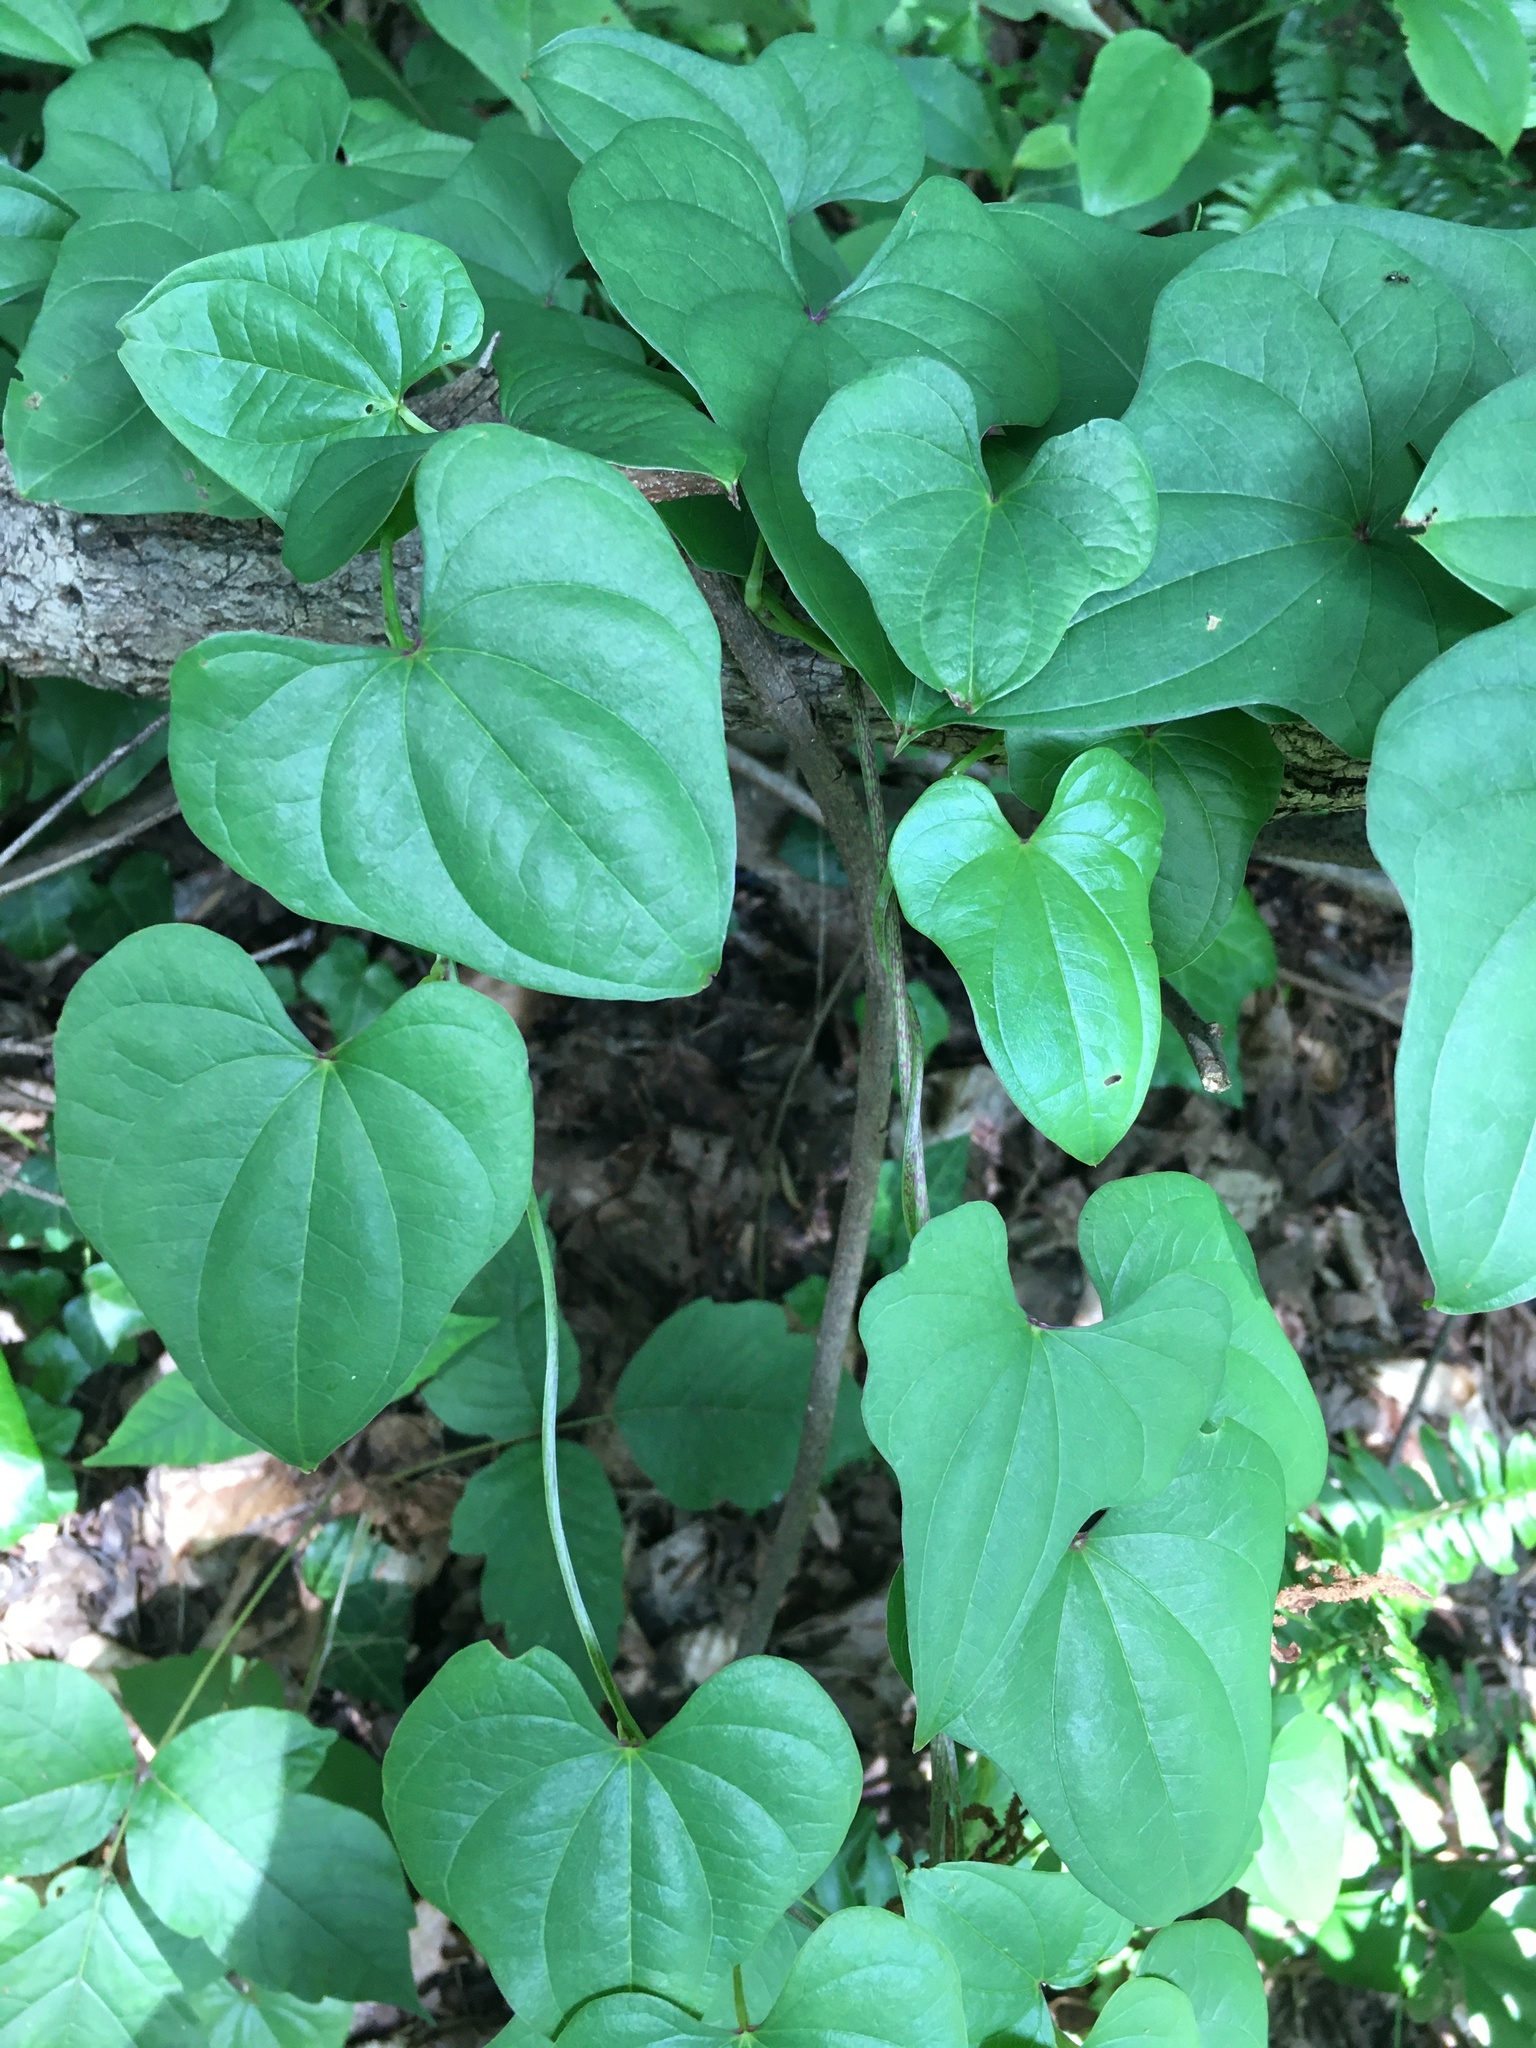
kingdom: Plantae
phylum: Tracheophyta
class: Liliopsida
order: Dioscoreales
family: Dioscoreaceae
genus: Dioscorea
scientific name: Dioscorea polystachya
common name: Chinese yam
